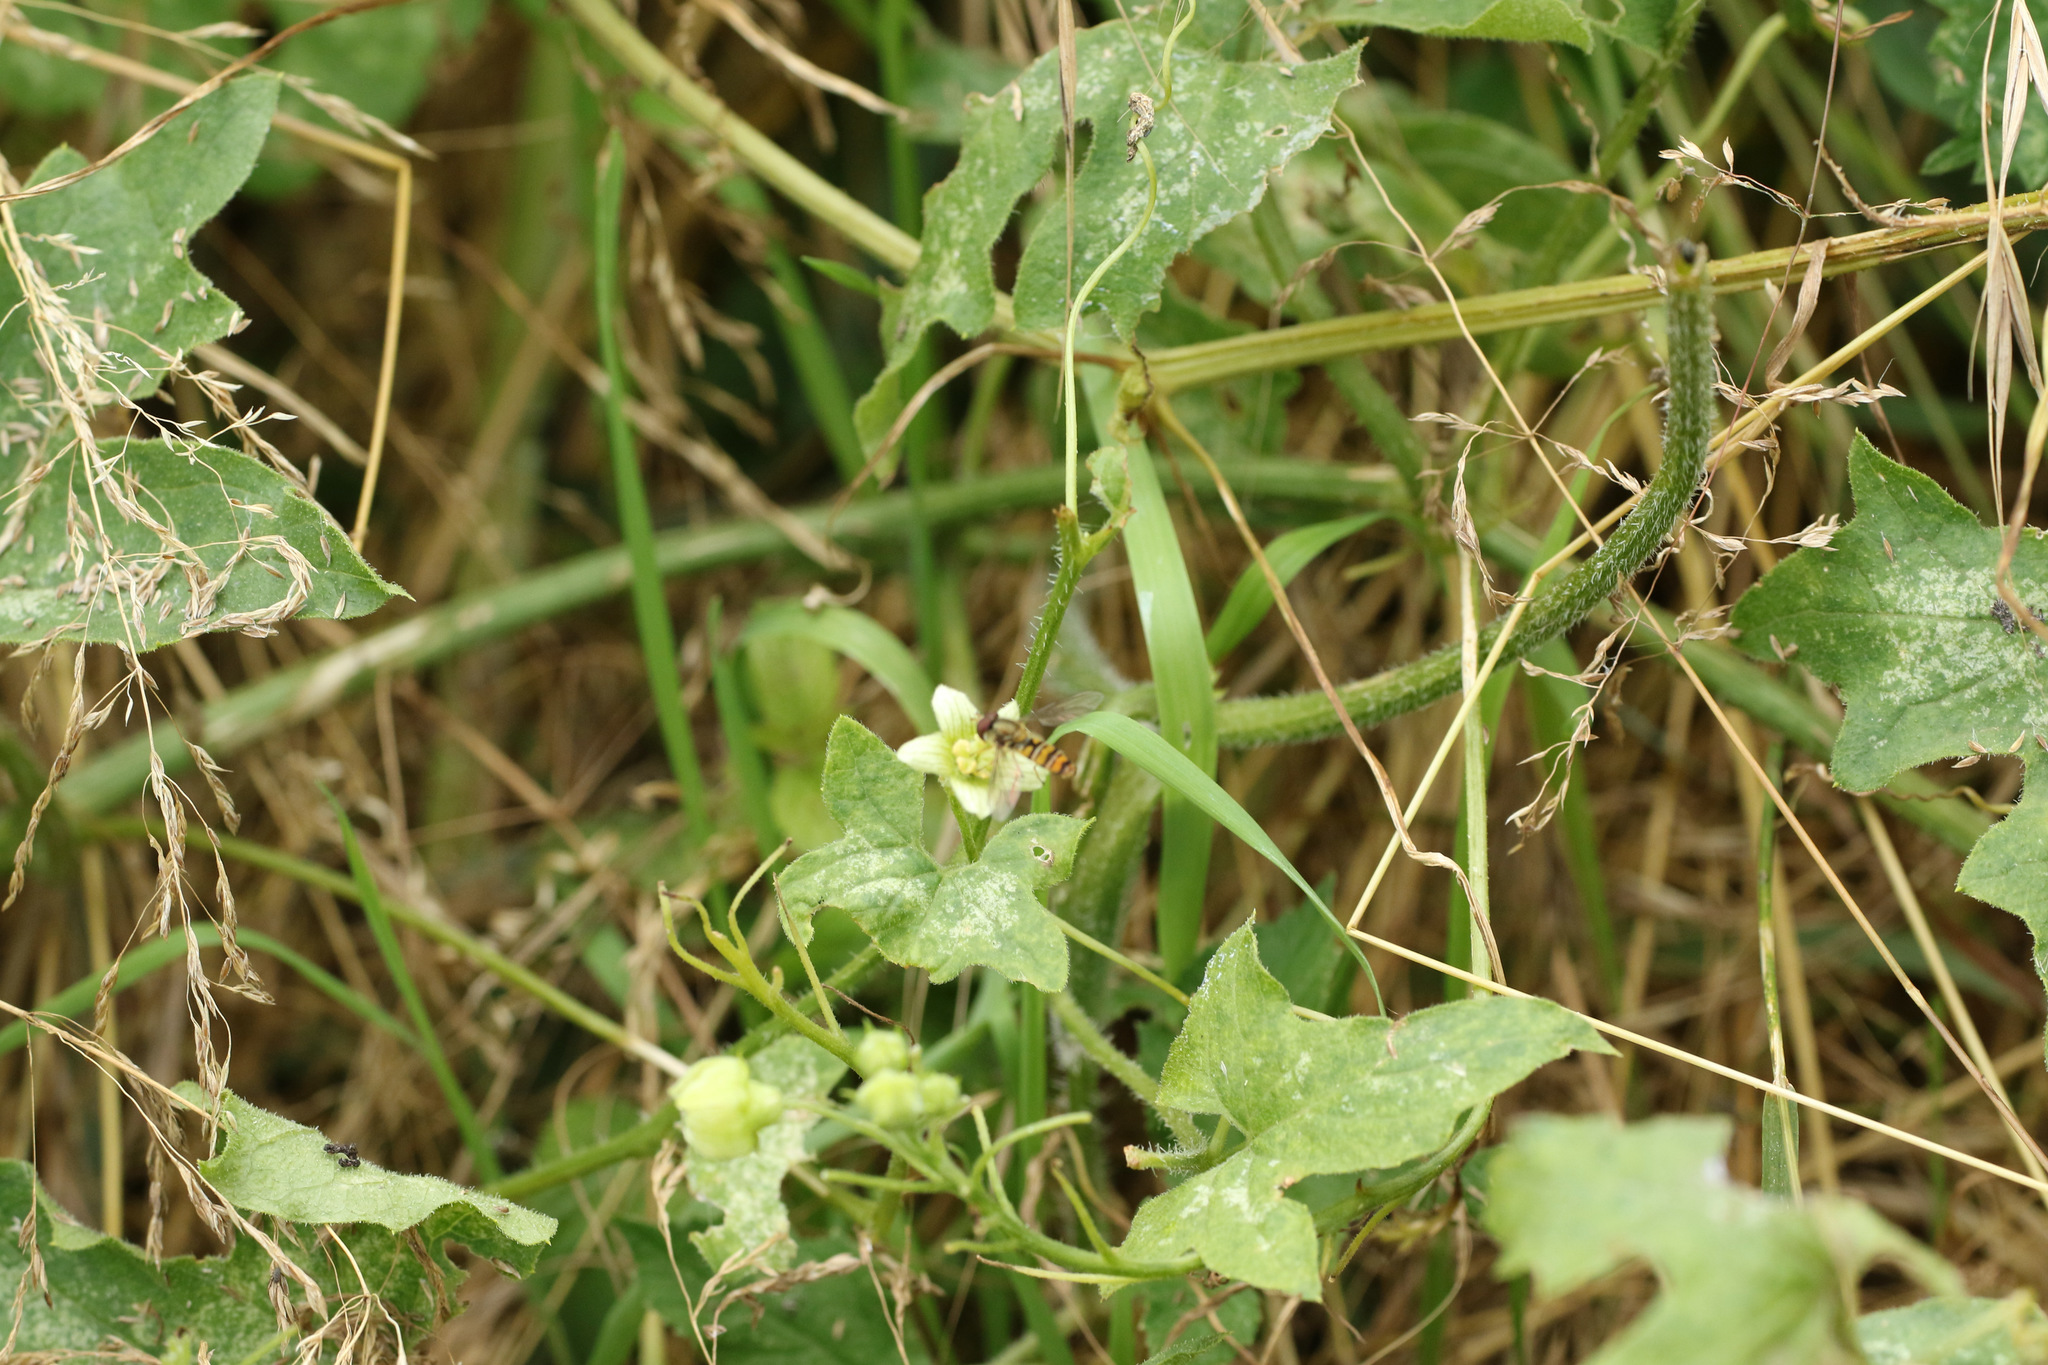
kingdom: Plantae
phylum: Tracheophyta
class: Magnoliopsida
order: Cucurbitales
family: Cucurbitaceae
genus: Bryonia
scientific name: Bryonia cretica
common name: Cretan bryony
